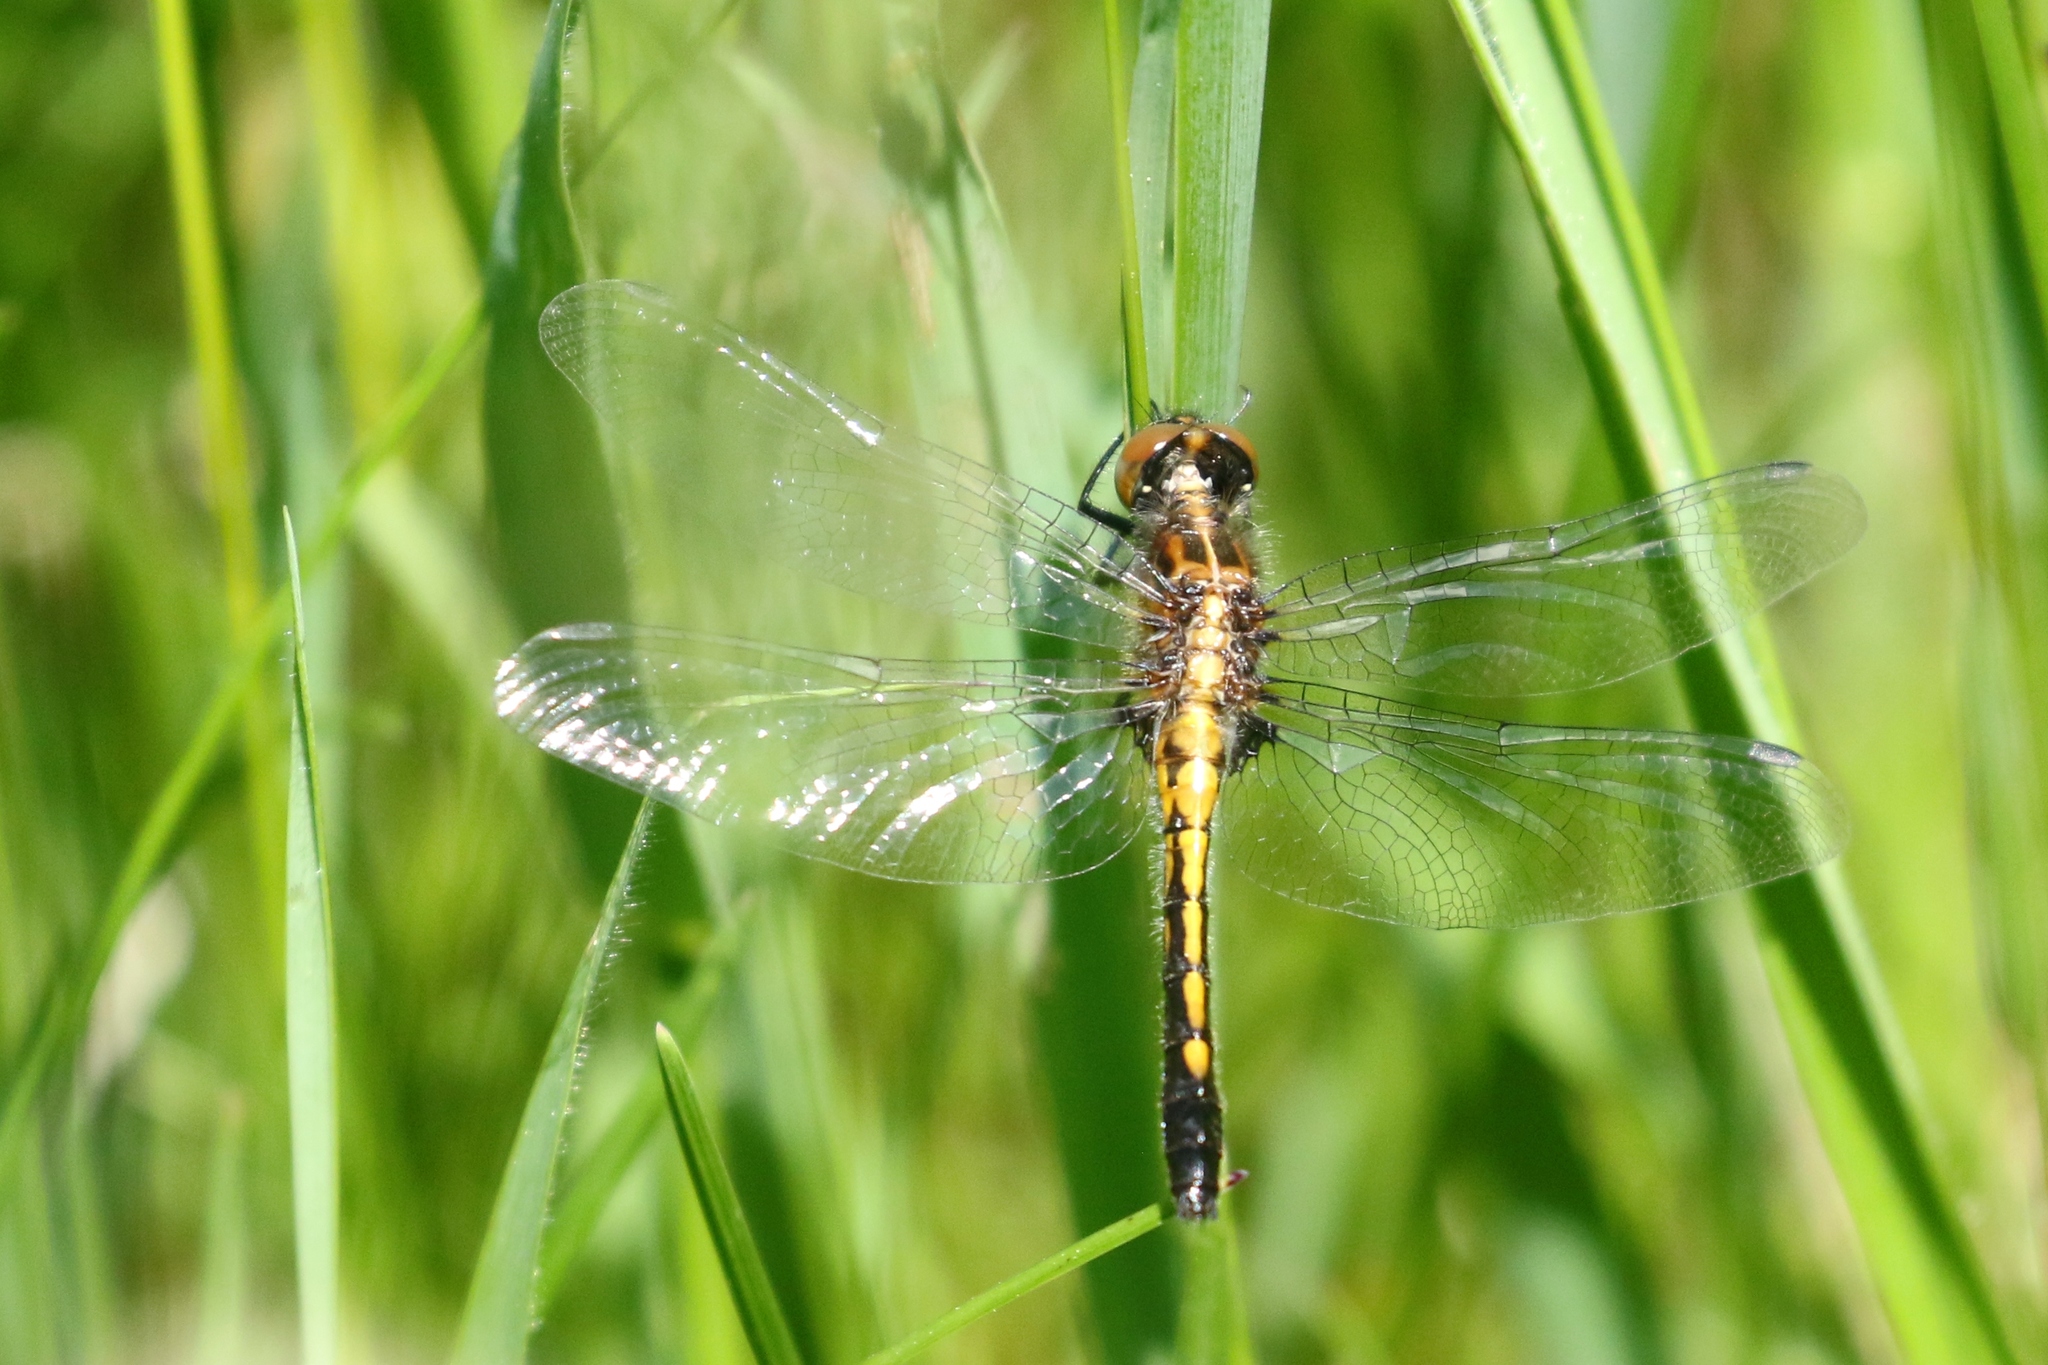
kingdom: Animalia
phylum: Arthropoda
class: Insecta
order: Odonata
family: Libellulidae
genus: Leucorrhinia
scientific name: Leucorrhinia intacta
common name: Dot-tailed whiteface
